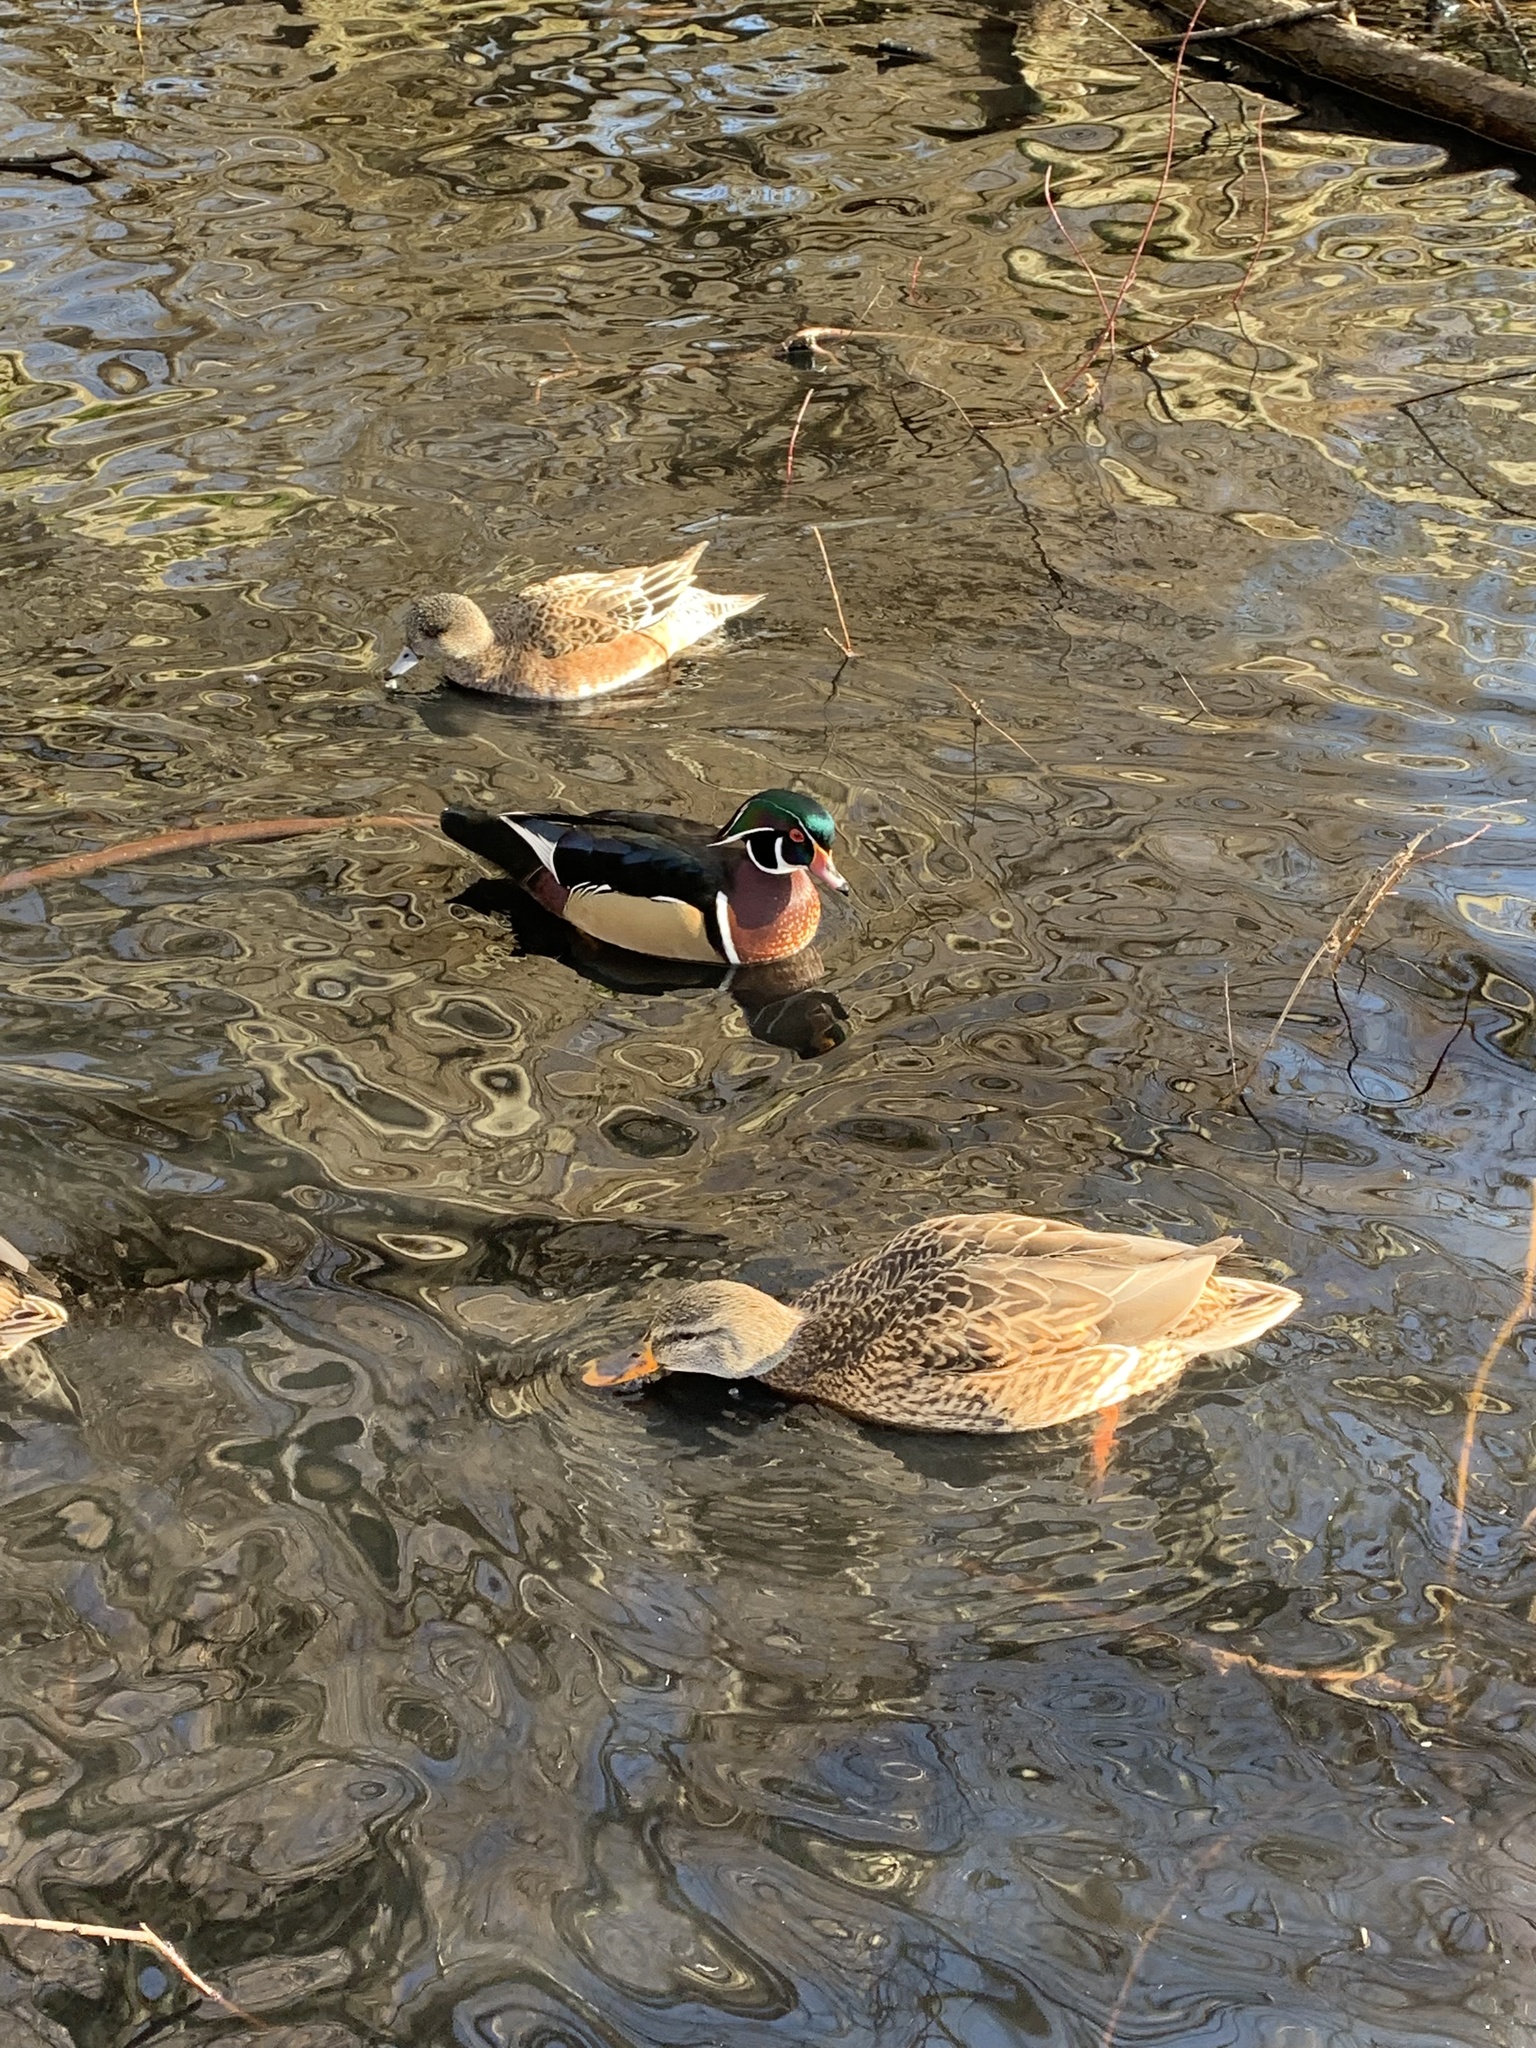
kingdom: Animalia
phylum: Chordata
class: Aves
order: Anseriformes
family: Anatidae
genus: Aix
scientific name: Aix sponsa
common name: Wood duck
